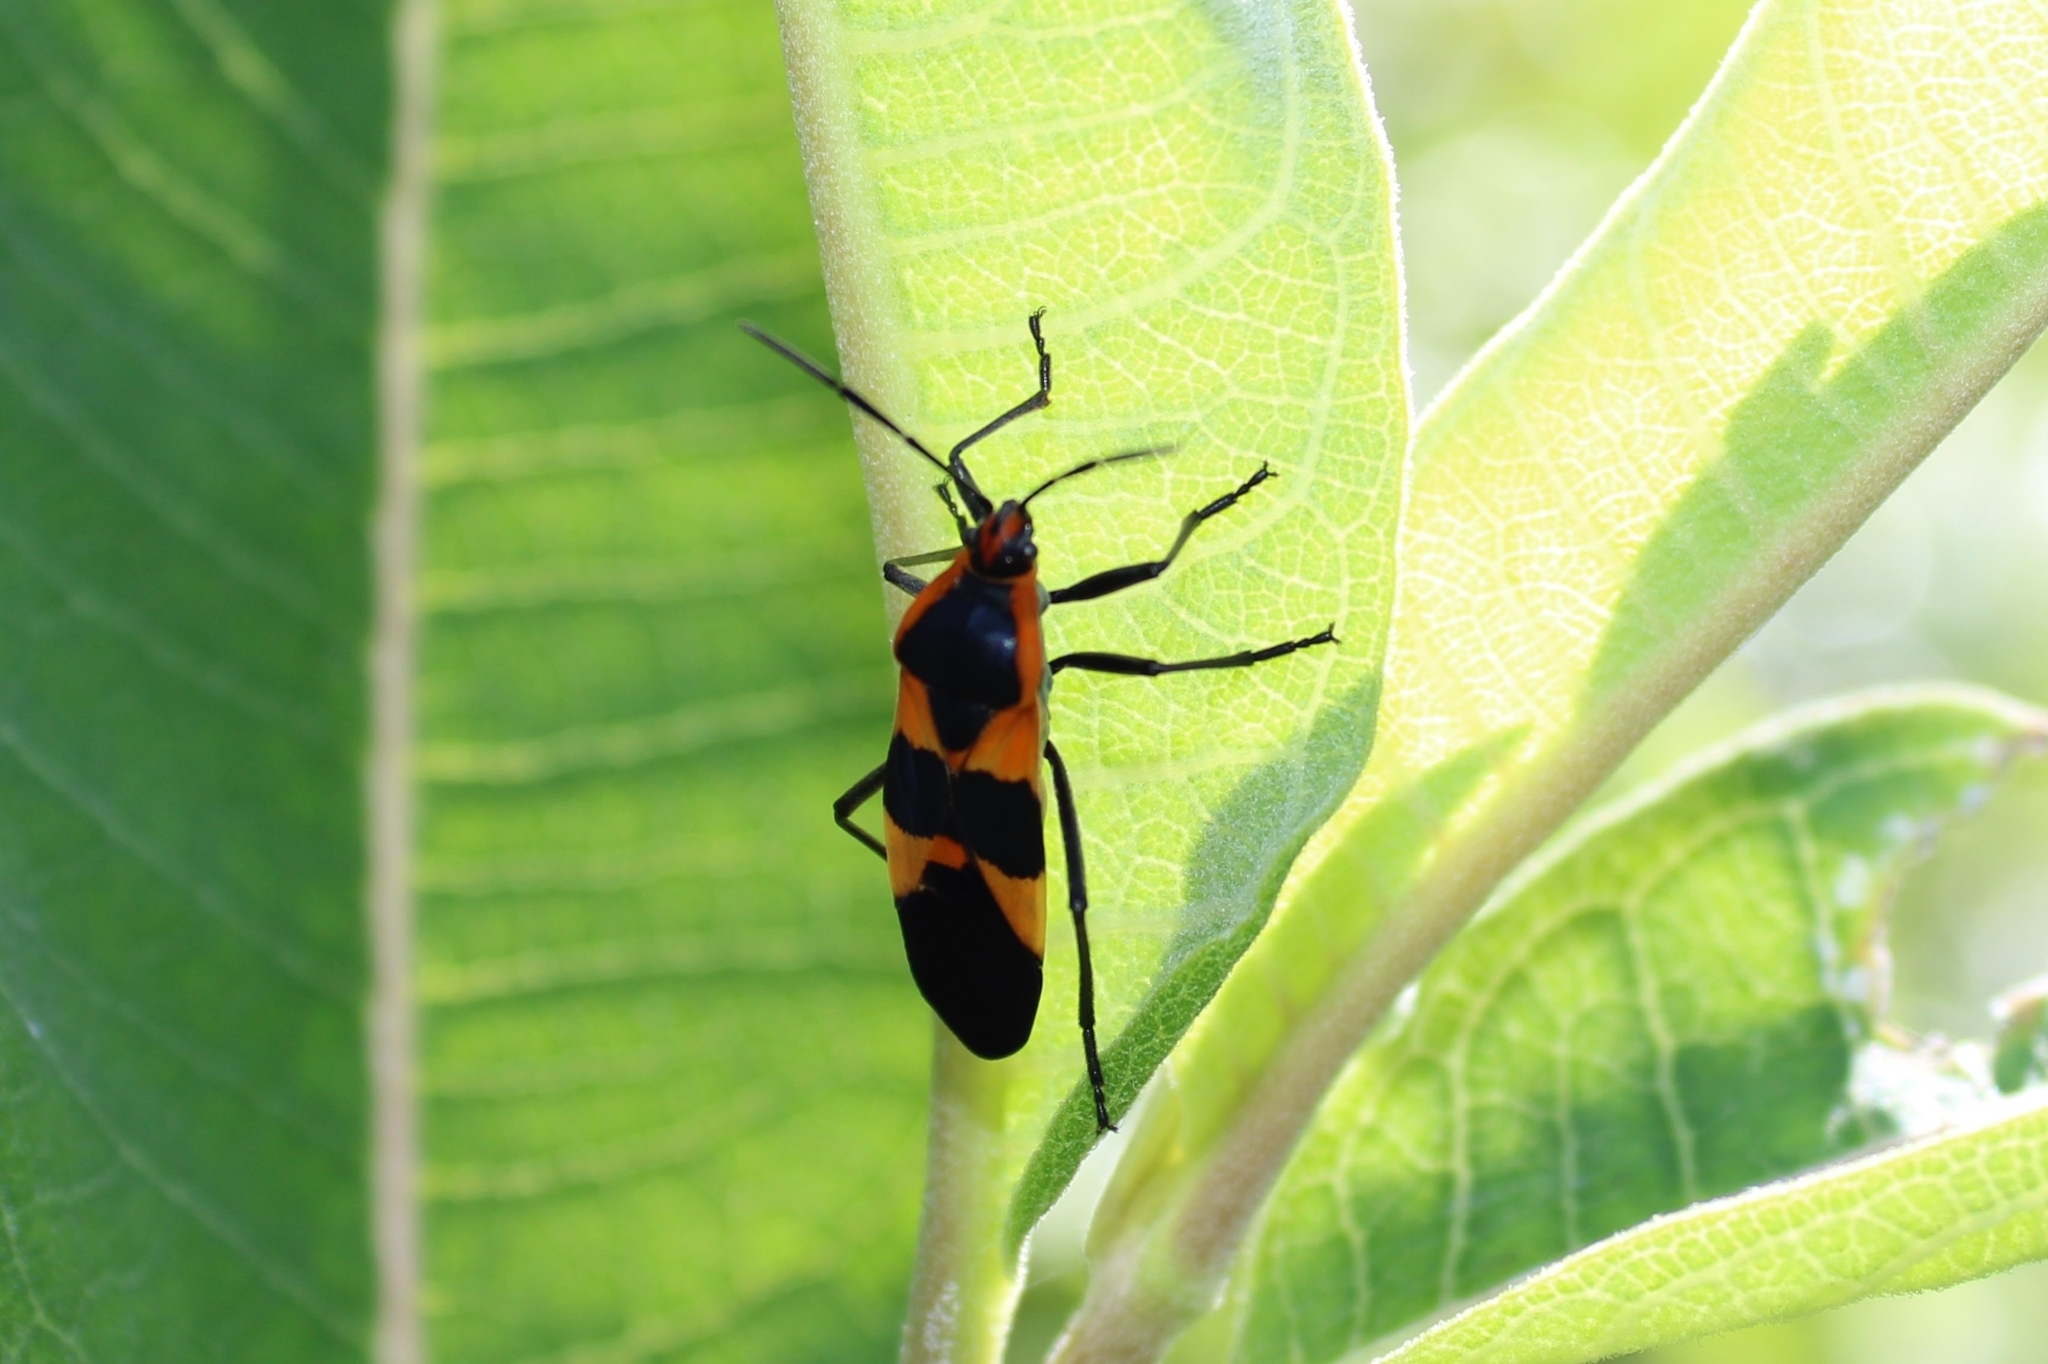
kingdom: Animalia
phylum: Arthropoda
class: Insecta
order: Hemiptera
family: Lygaeidae
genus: Oncopeltus
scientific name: Oncopeltus fasciatus
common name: Large milkweed bug
